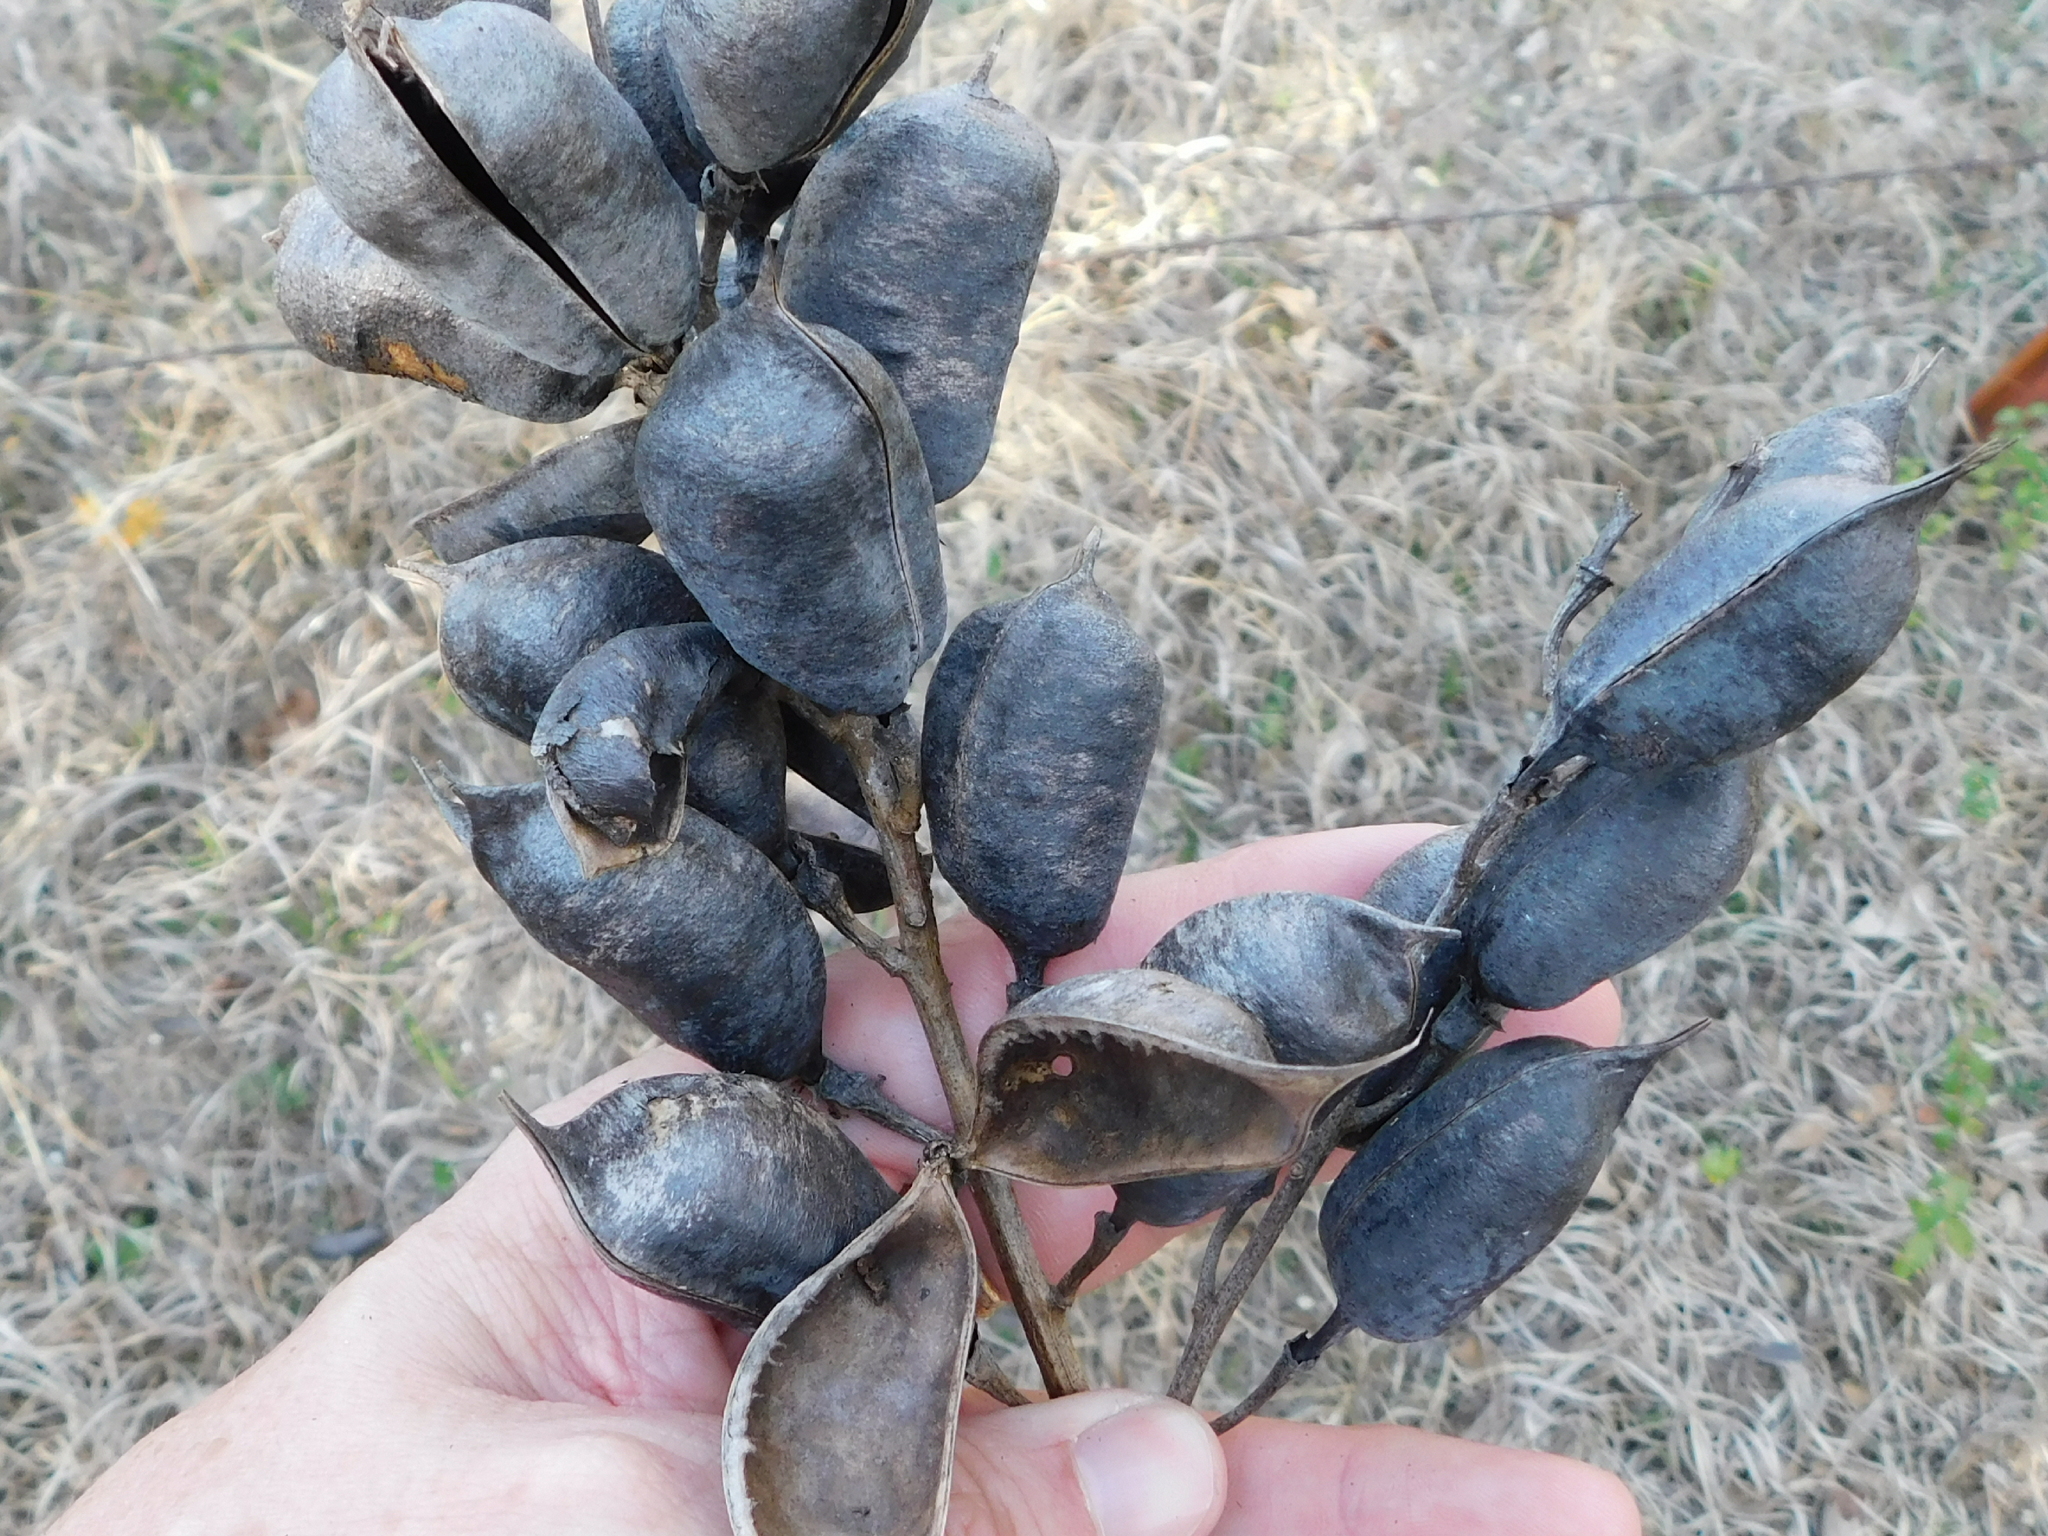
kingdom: Plantae
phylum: Tracheophyta
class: Magnoliopsida
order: Fabales
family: Fabaceae
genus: Baptisia
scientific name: Baptisia australis
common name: Blue false indigo
